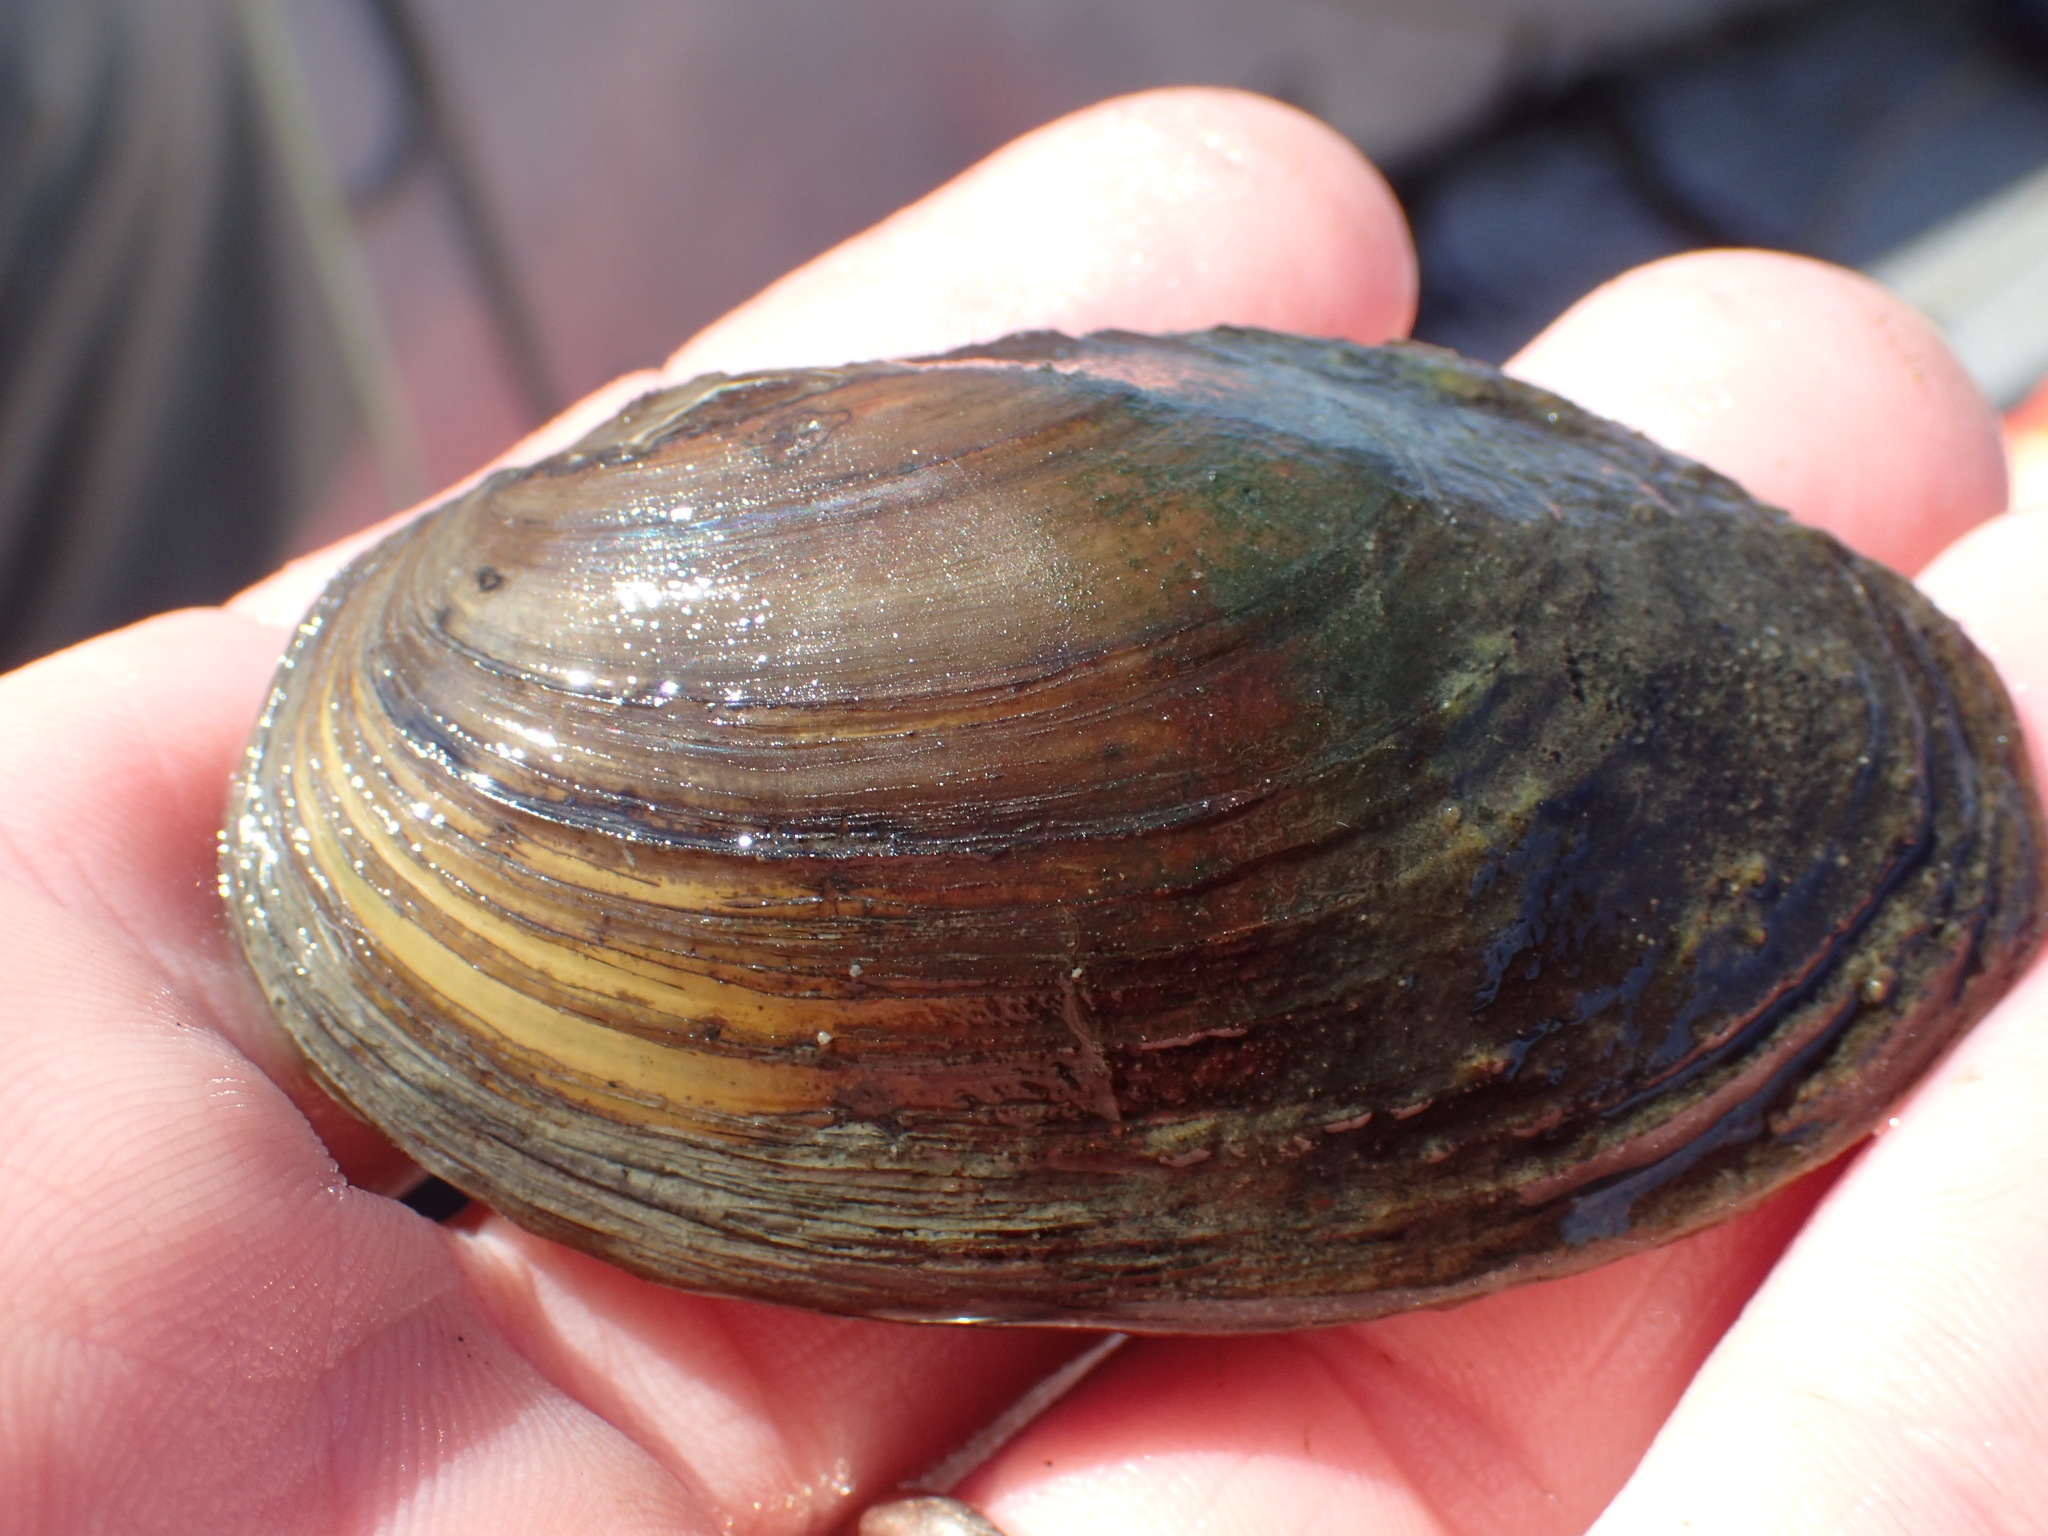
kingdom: Animalia
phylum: Mollusca
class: Bivalvia
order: Unionida
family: Unionidae
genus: Beringiana
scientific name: Beringiana beringiana
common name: Yukon floater
